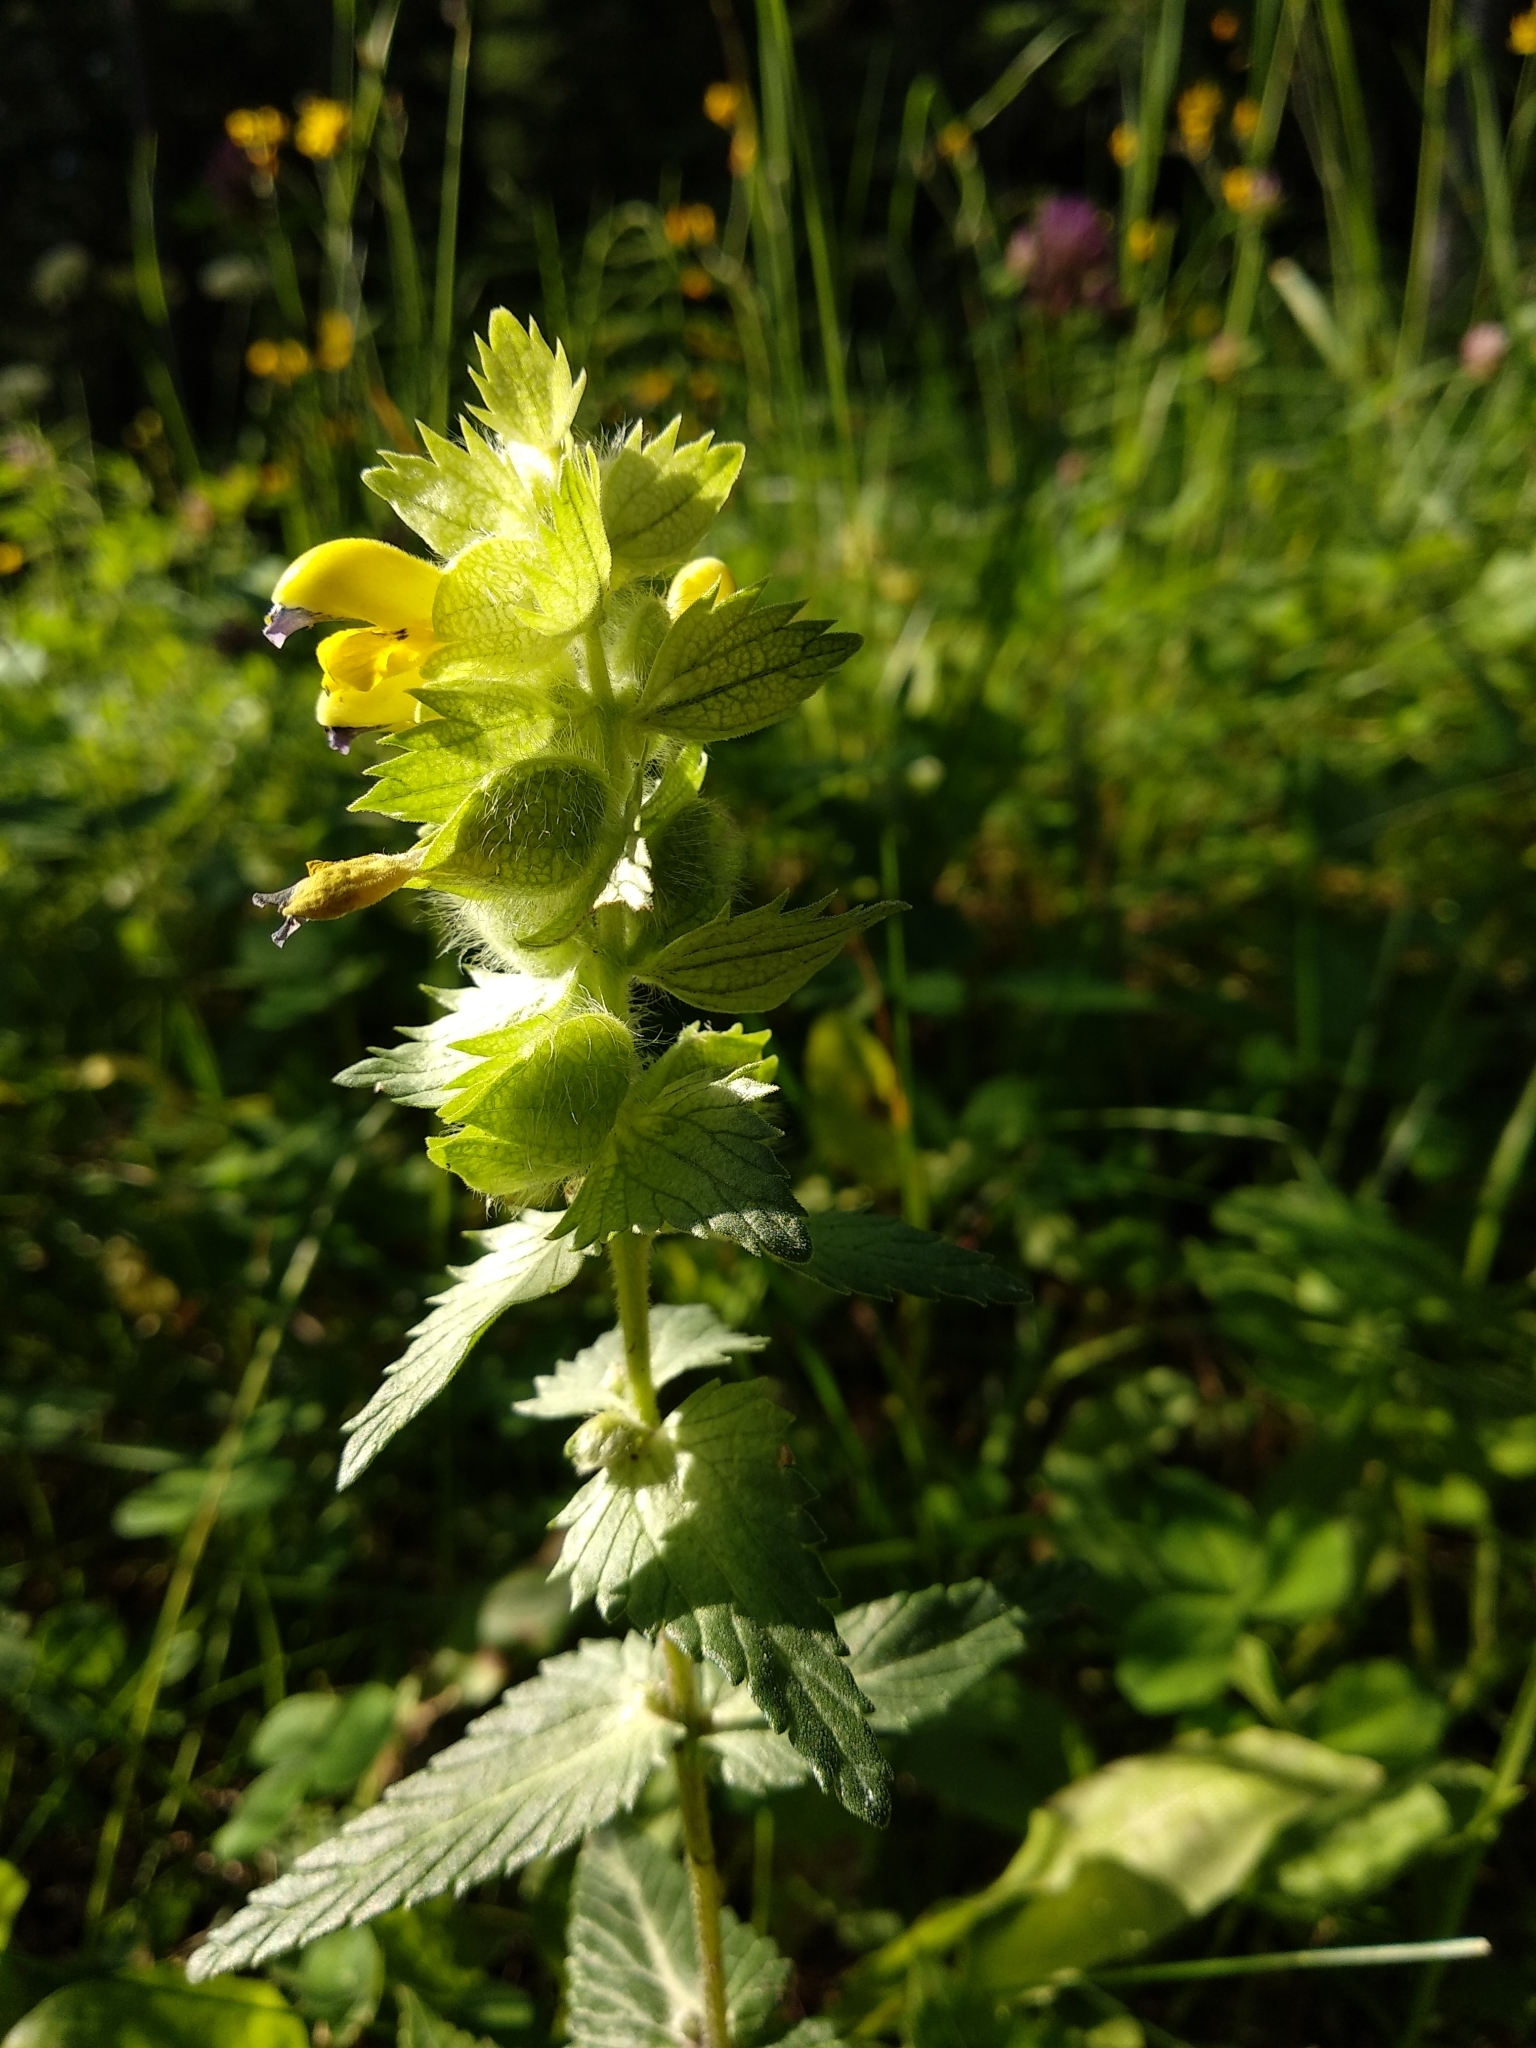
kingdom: Plantae
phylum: Tracheophyta
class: Magnoliopsida
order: Lamiales
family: Orobanchaceae
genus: Rhinanthus
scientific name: Rhinanthus alectorolophus
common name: Greater yellow-rattle
